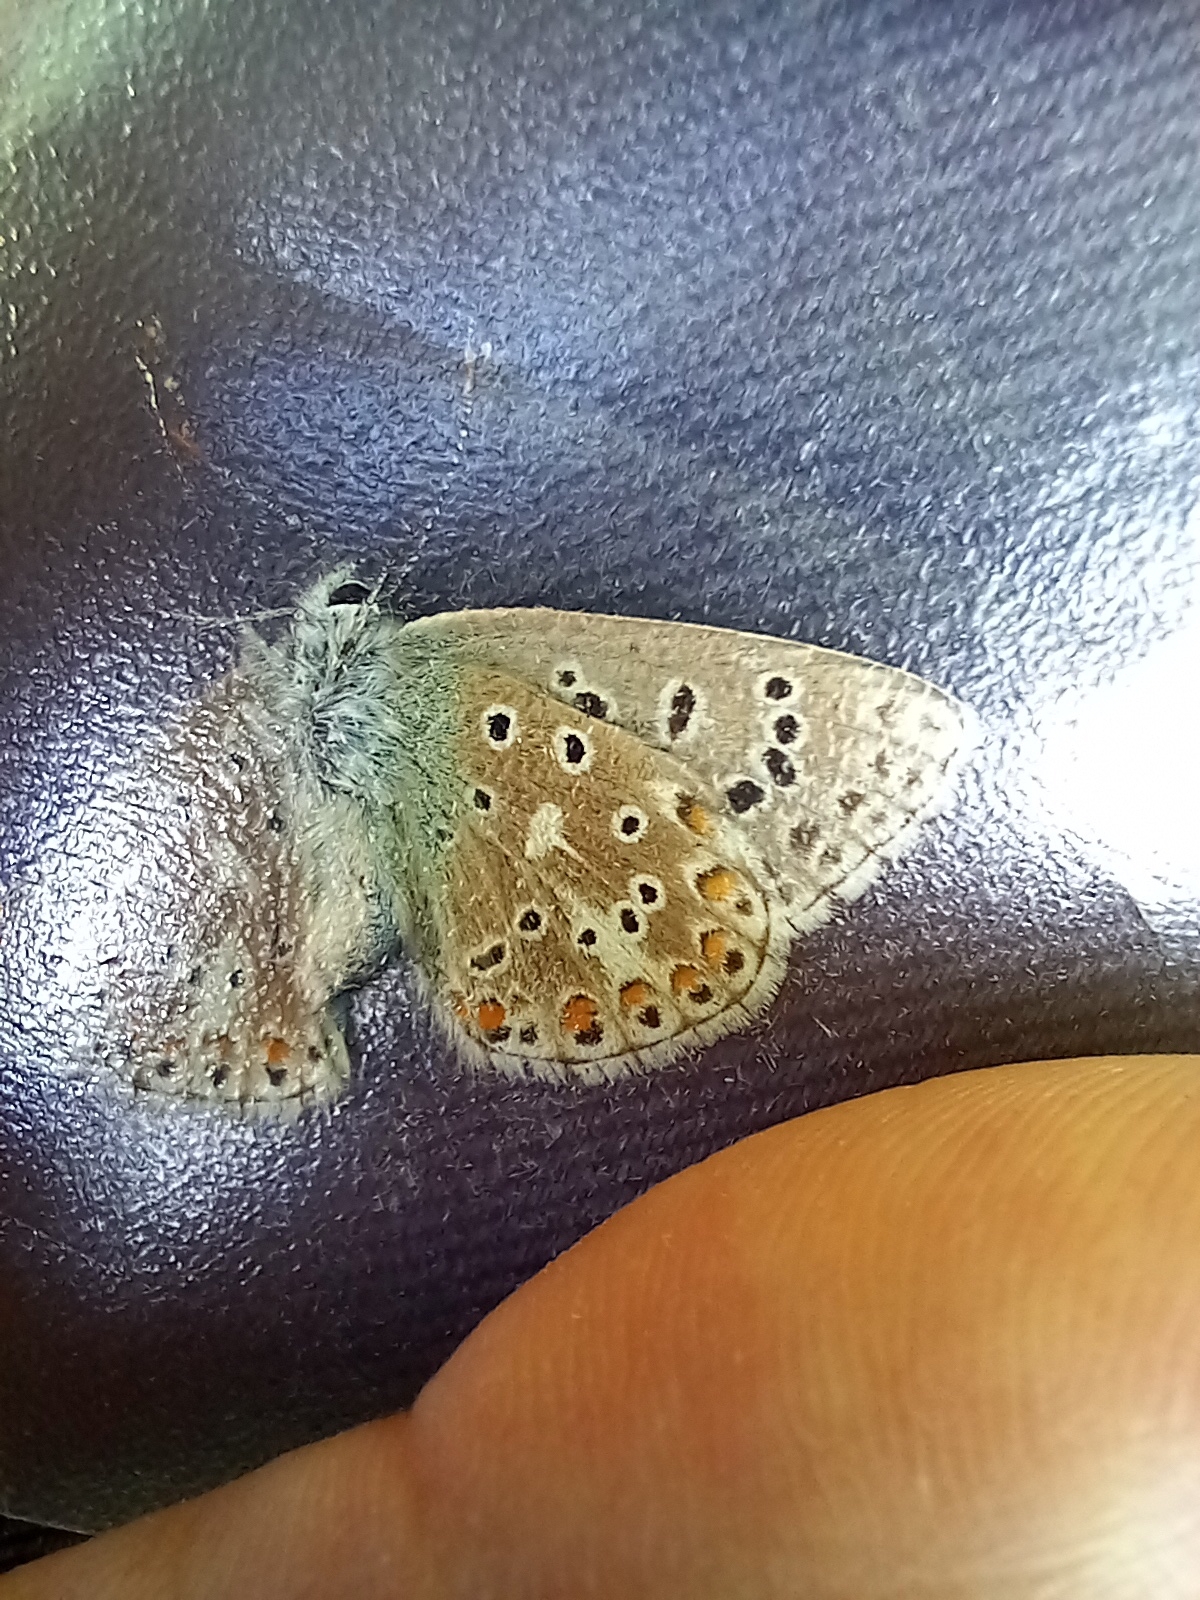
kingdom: Animalia
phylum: Arthropoda
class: Insecta
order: Lepidoptera
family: Lycaenidae
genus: Lysandra
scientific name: Lysandra bellargus
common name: Adonis blue
